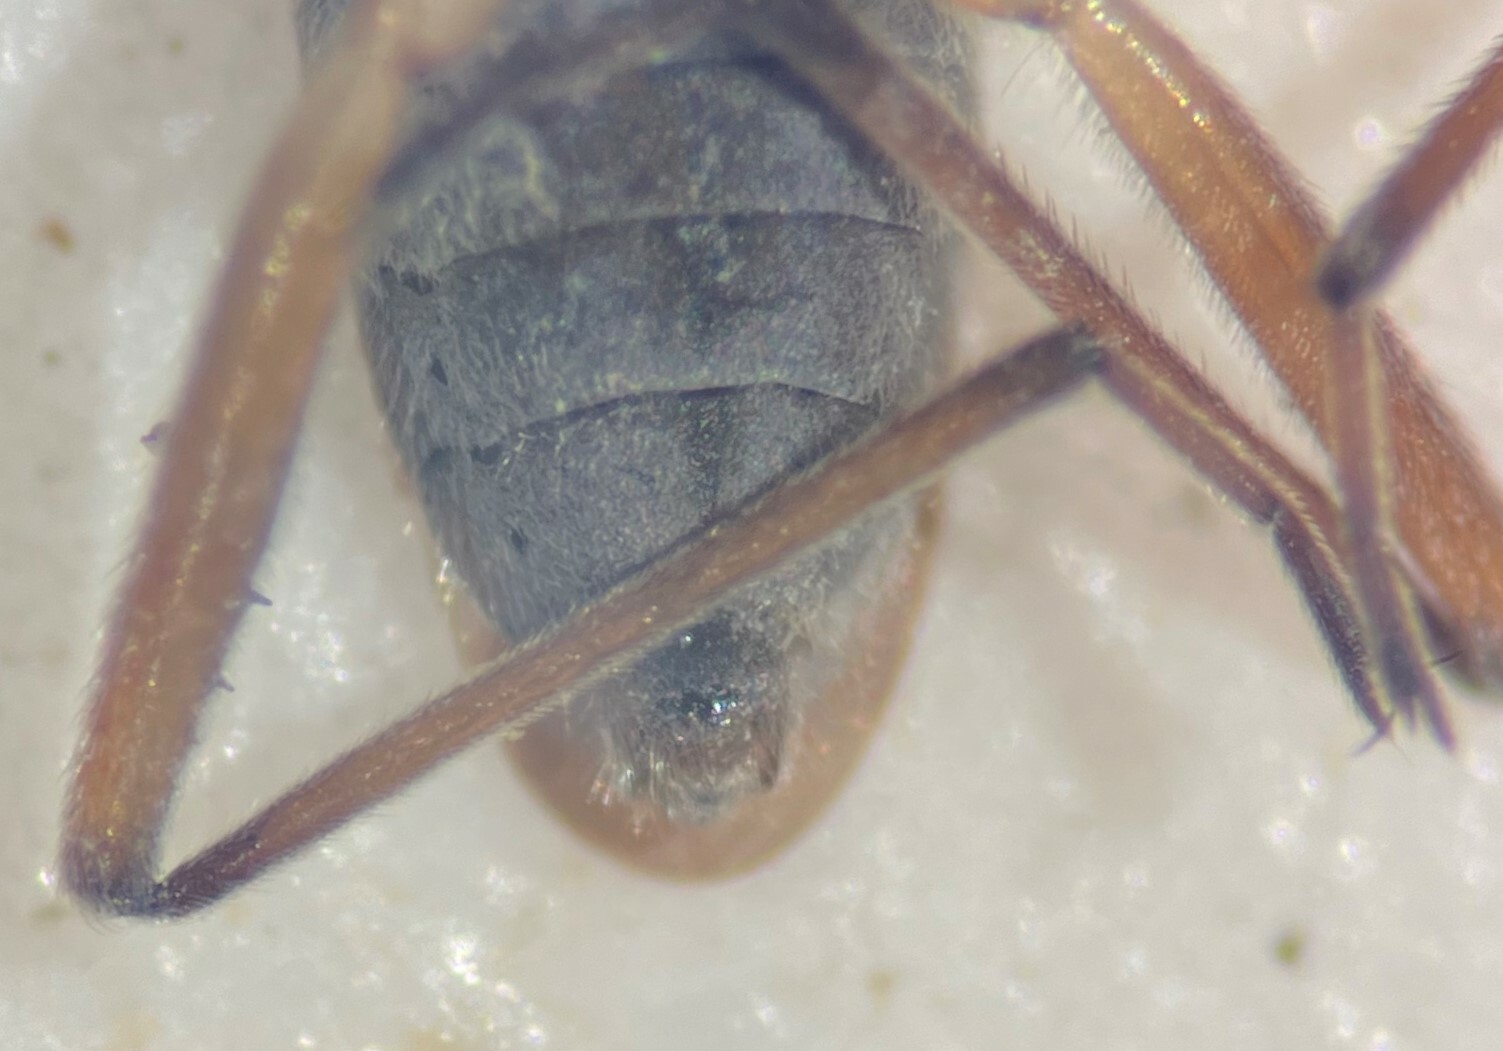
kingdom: Animalia
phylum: Arthropoda
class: Insecta
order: Hemiptera
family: Veliidae
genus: Microvelia
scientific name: Microvelia paludicola
